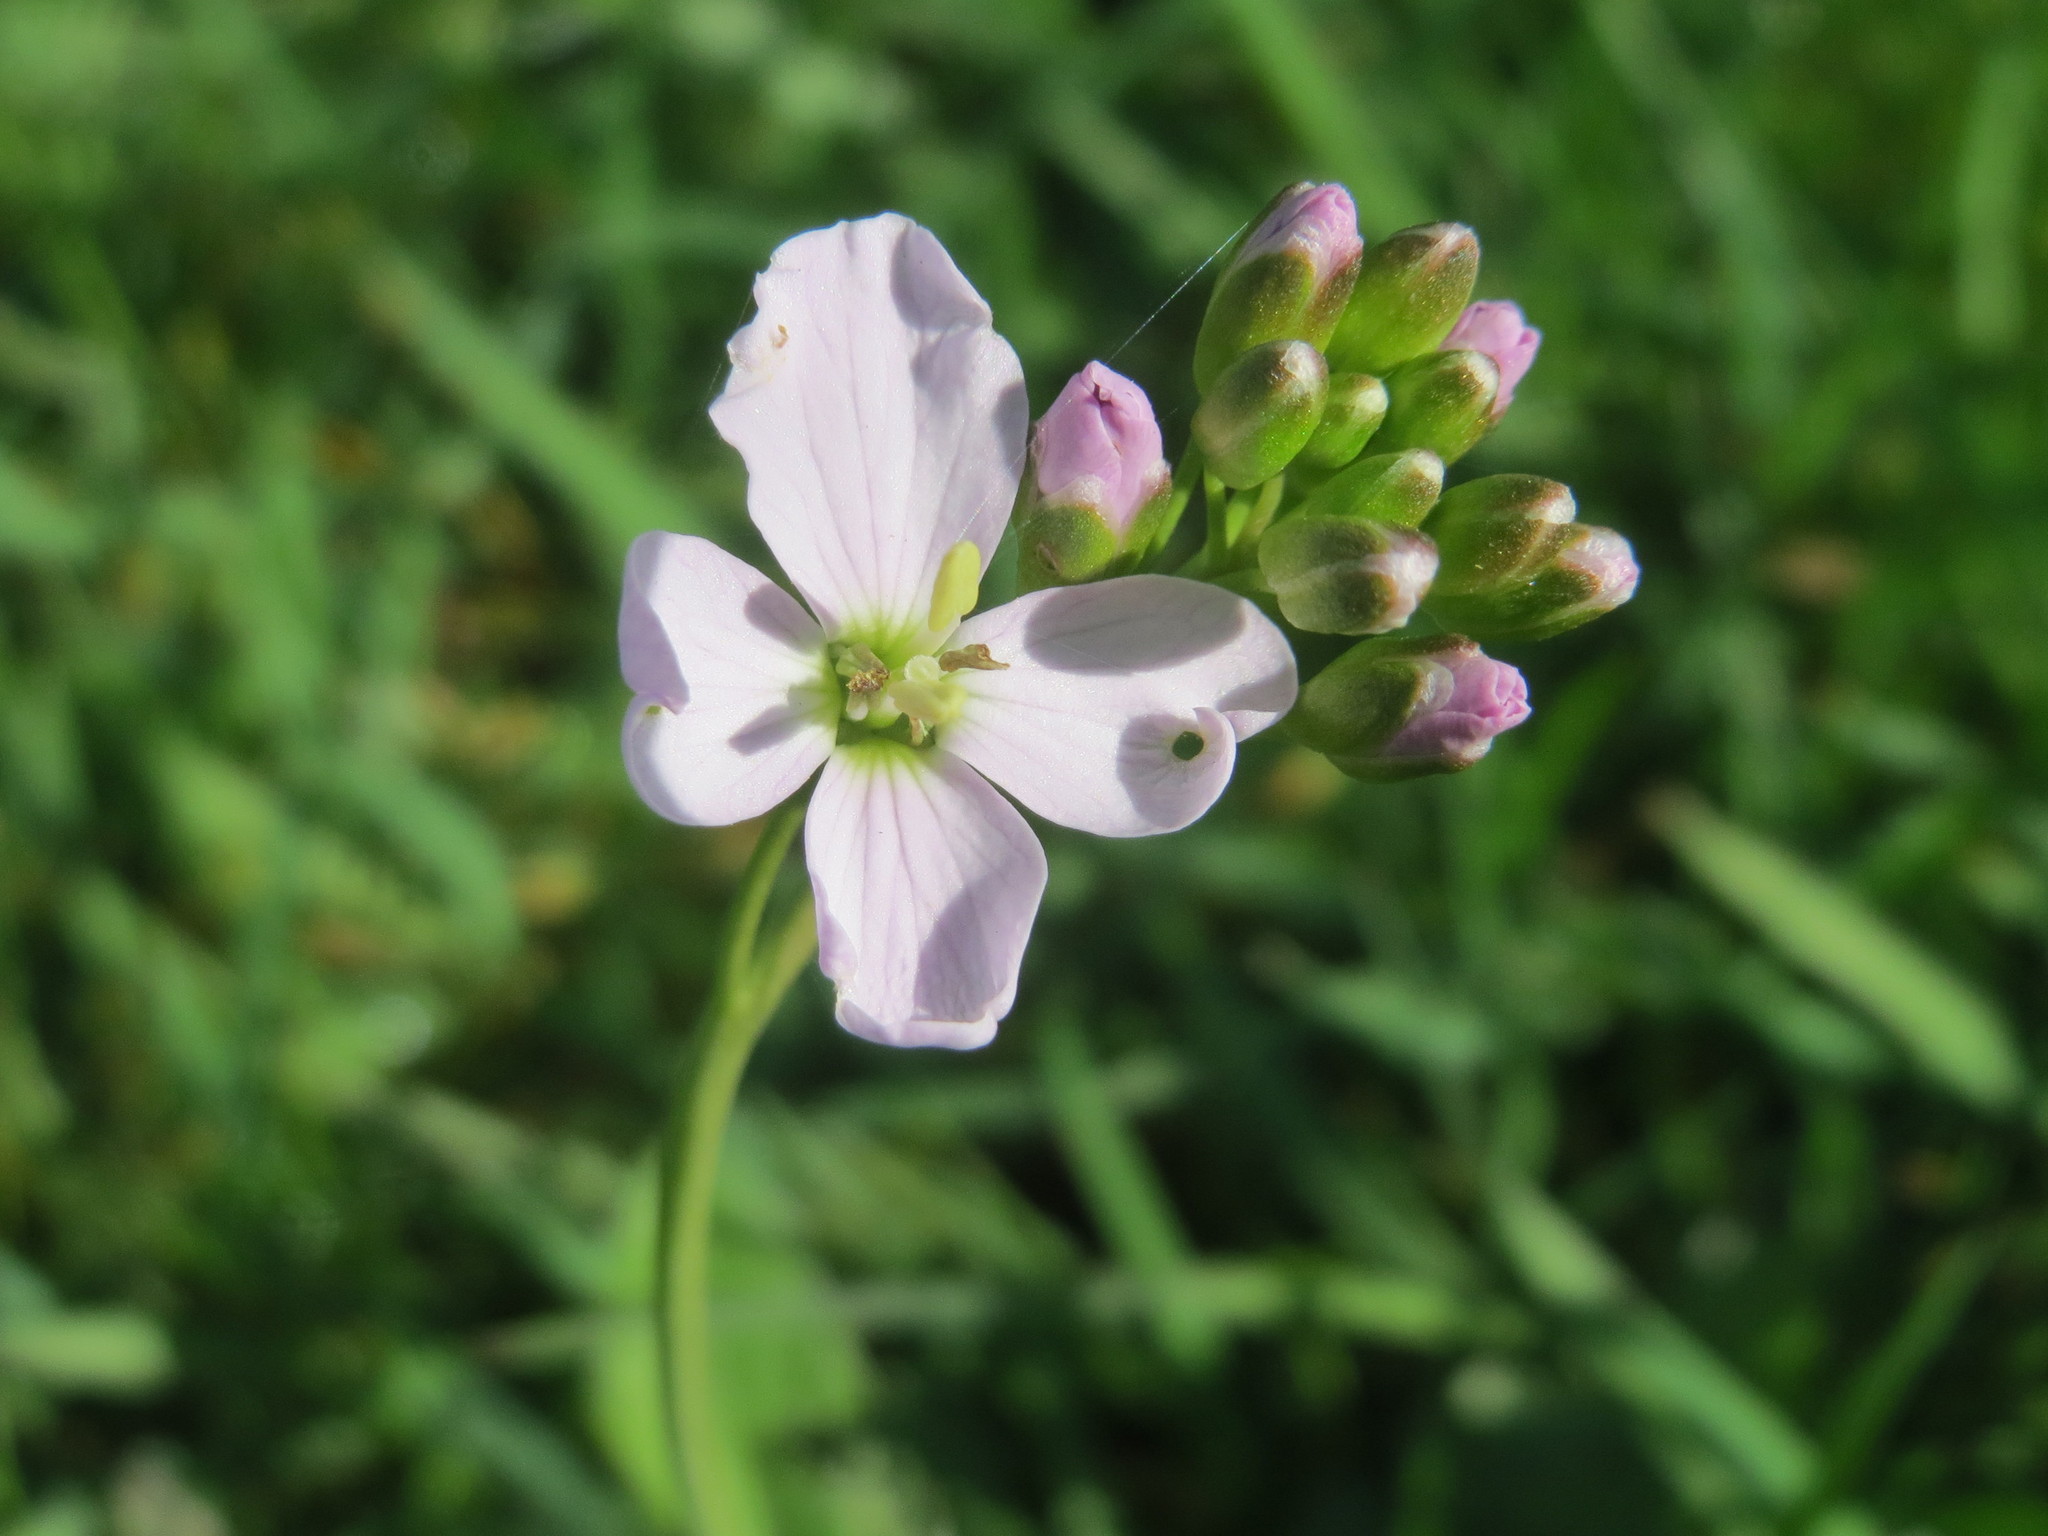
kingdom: Plantae
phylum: Tracheophyta
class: Magnoliopsida
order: Brassicales
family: Brassicaceae
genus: Cardamine
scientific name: Cardamine pratensis
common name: Cuckoo flower
